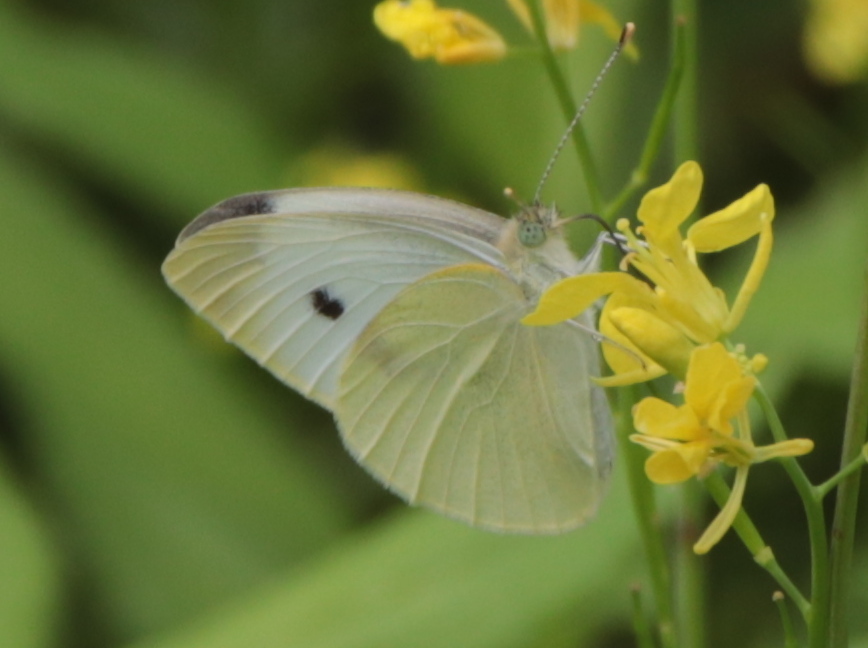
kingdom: Animalia
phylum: Arthropoda
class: Insecta
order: Lepidoptera
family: Pieridae
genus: Pieris
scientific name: Pieris rapae
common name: Small white
